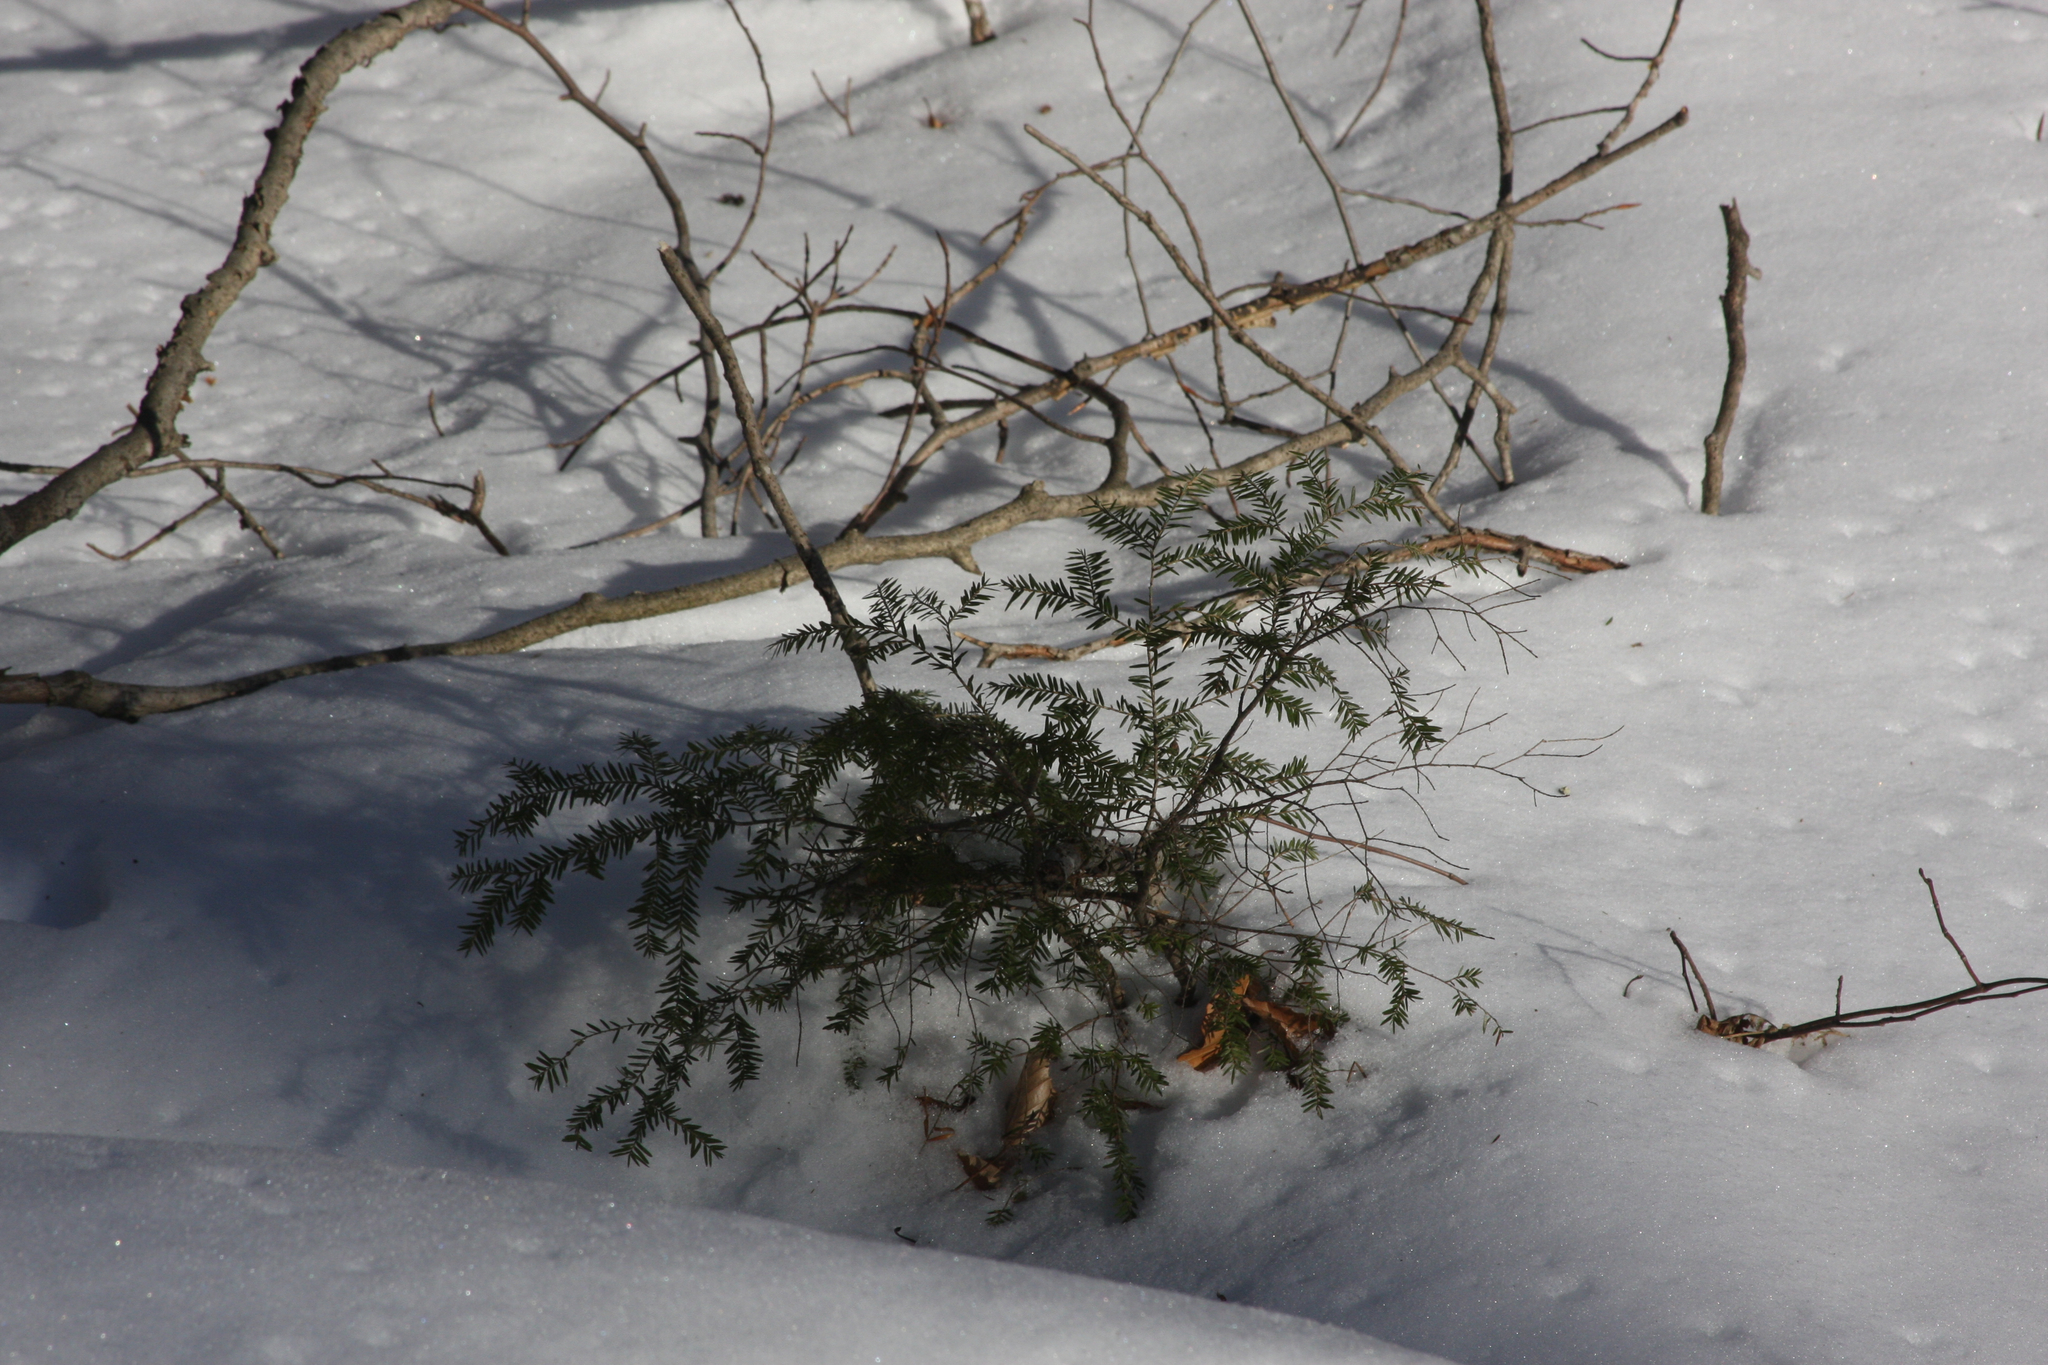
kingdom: Plantae
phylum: Tracheophyta
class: Pinopsida
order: Pinales
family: Pinaceae
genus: Tsuga
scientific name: Tsuga canadensis
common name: Eastern hemlock
